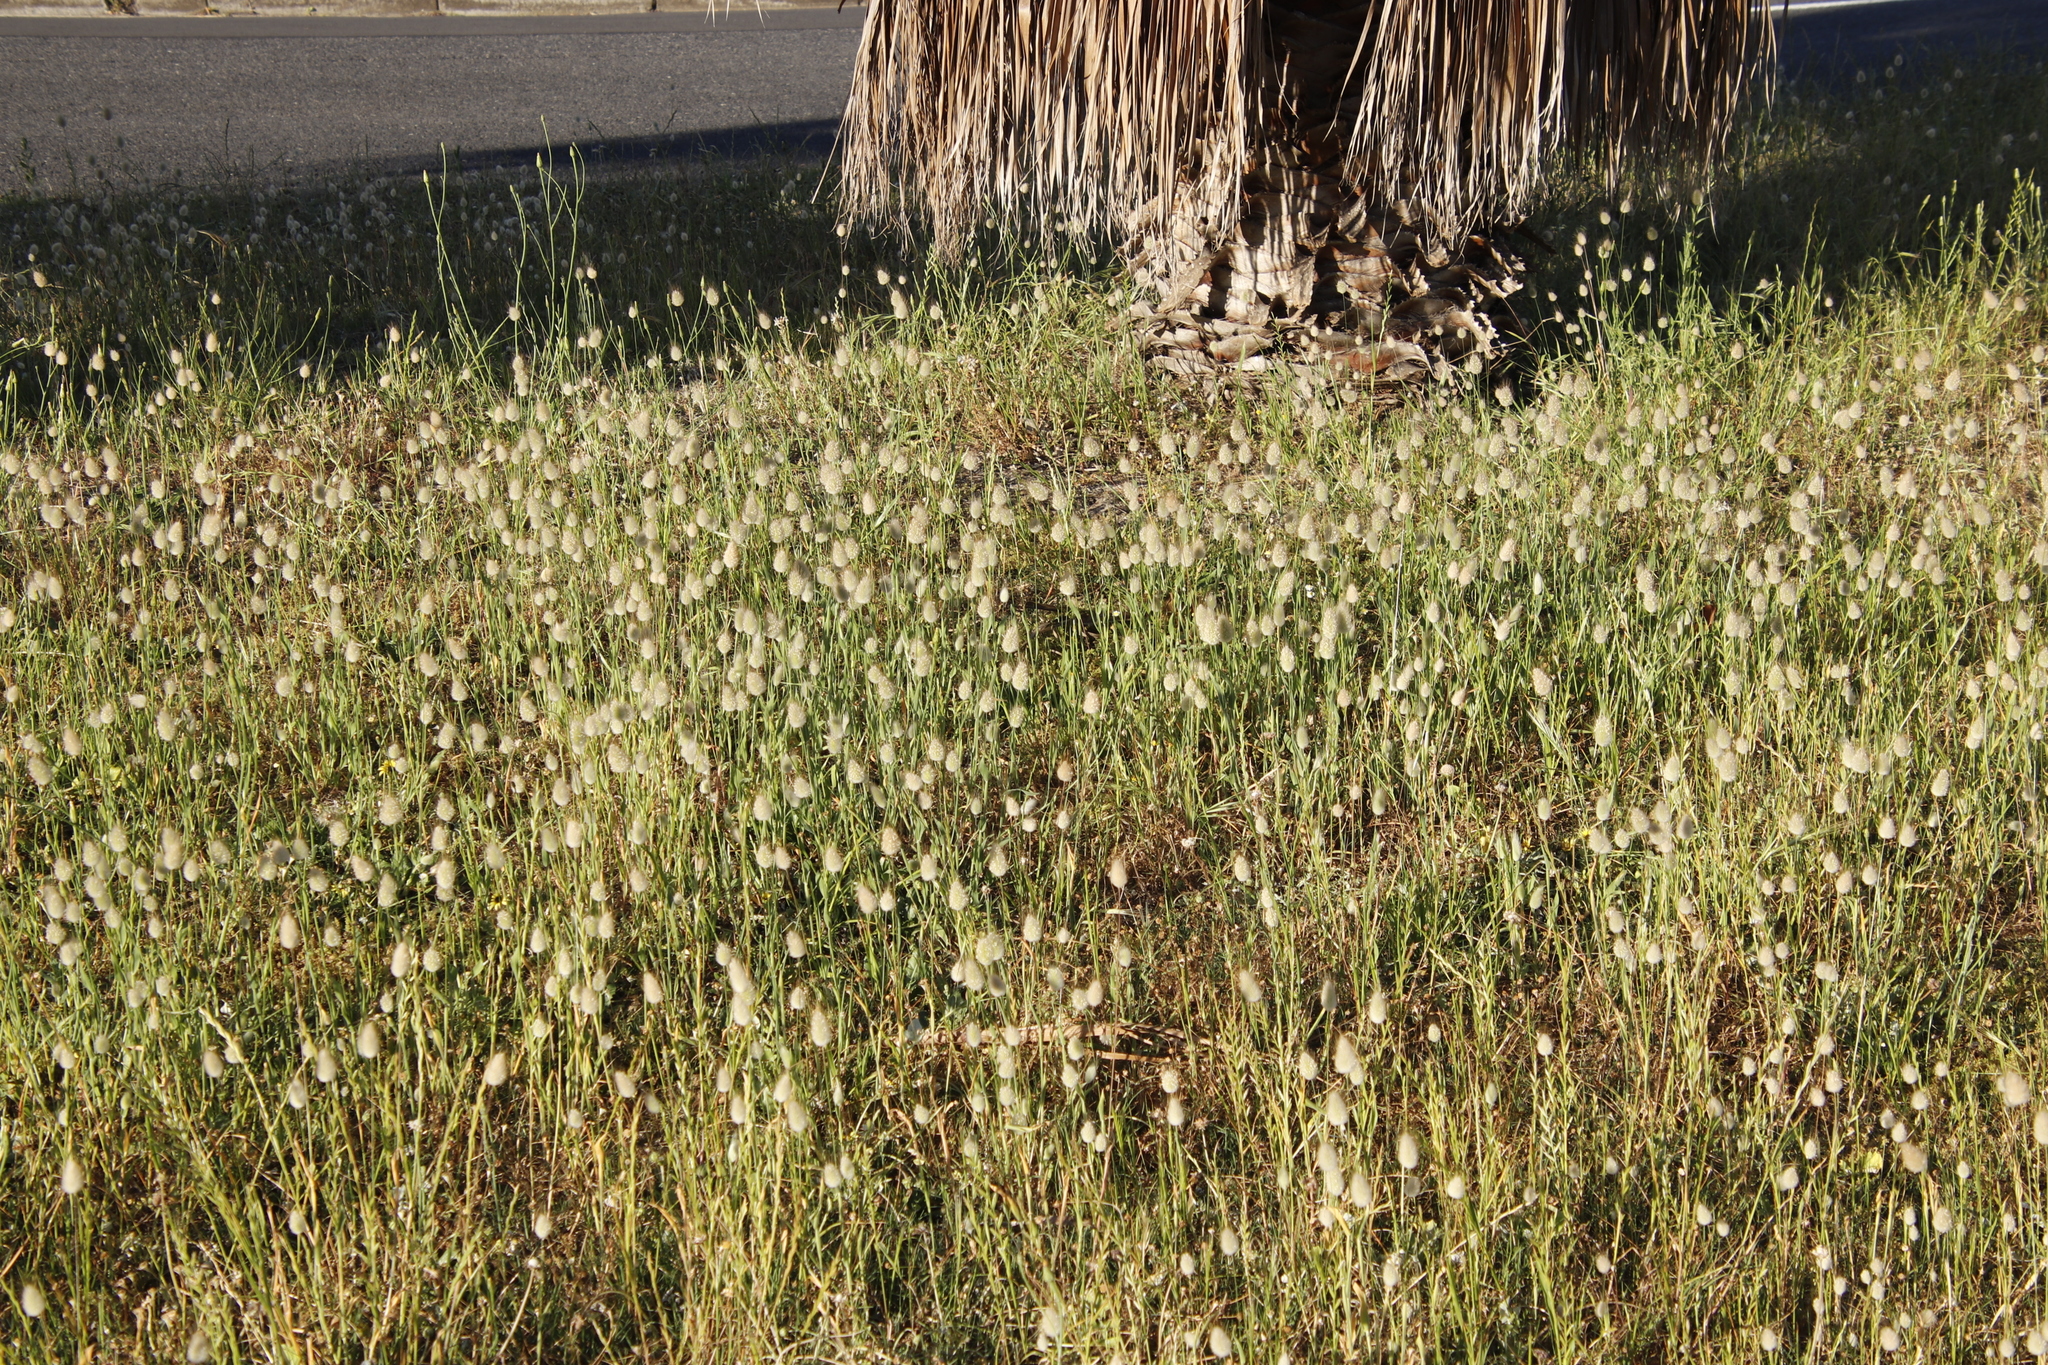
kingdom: Plantae
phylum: Tracheophyta
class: Liliopsida
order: Poales
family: Poaceae
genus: Lagurus
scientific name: Lagurus ovatus
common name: Hare's-tail
